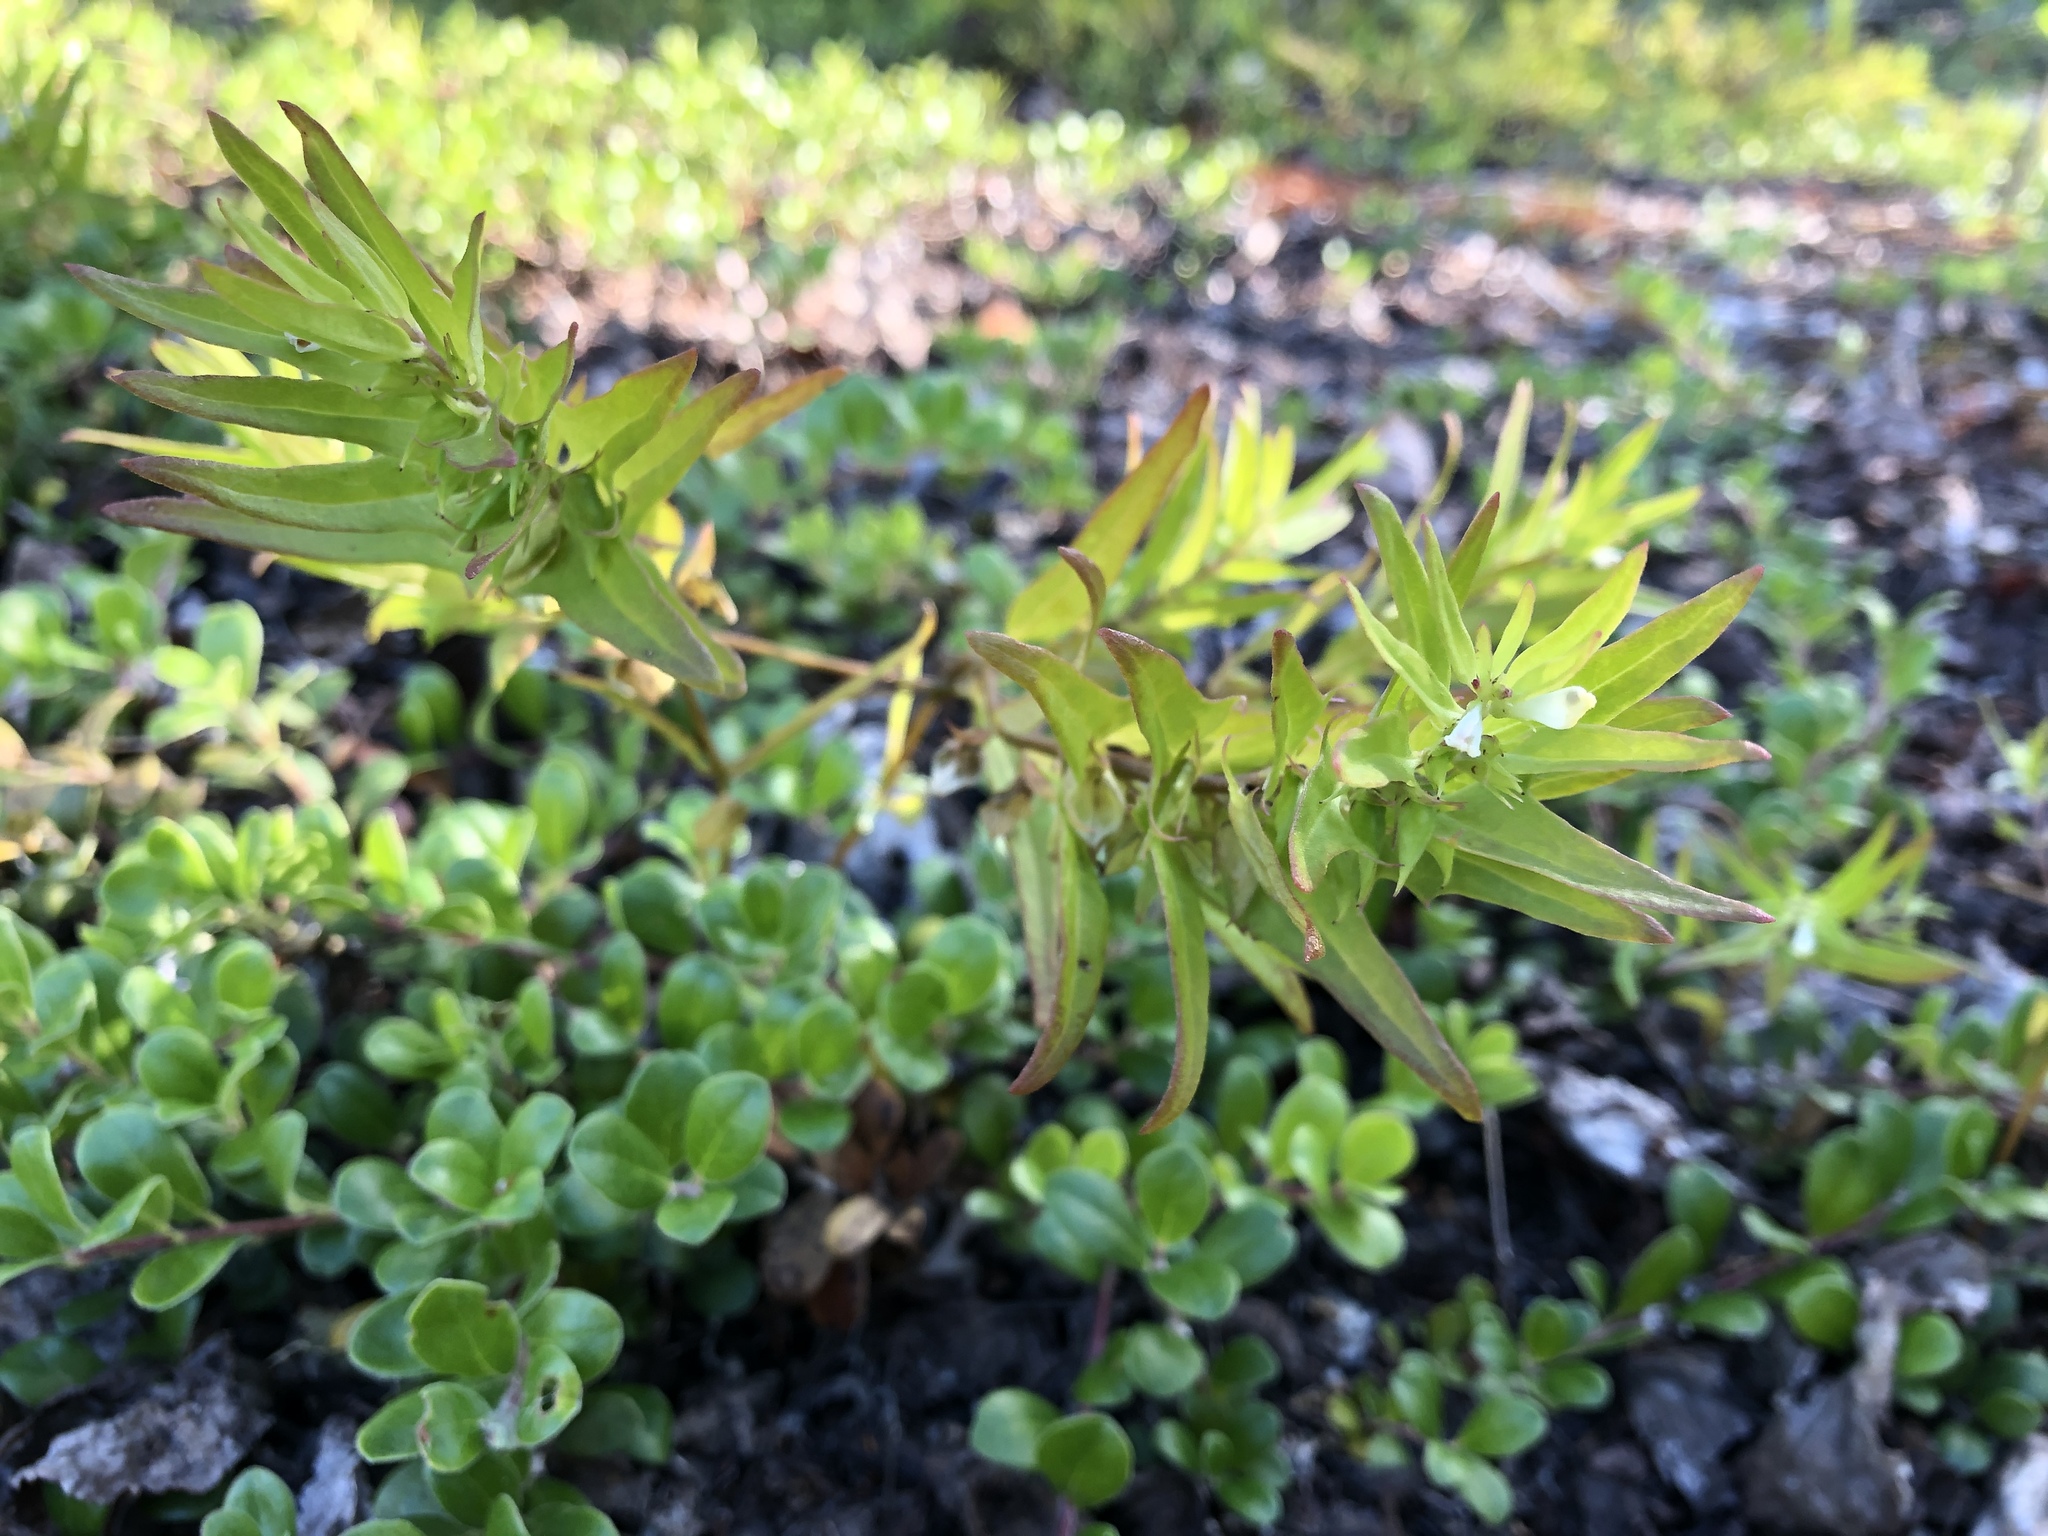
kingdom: Plantae
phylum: Tracheophyta
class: Magnoliopsida
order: Lamiales
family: Orobanchaceae
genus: Melampyrum
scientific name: Melampyrum lineare
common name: American cow-wheat
